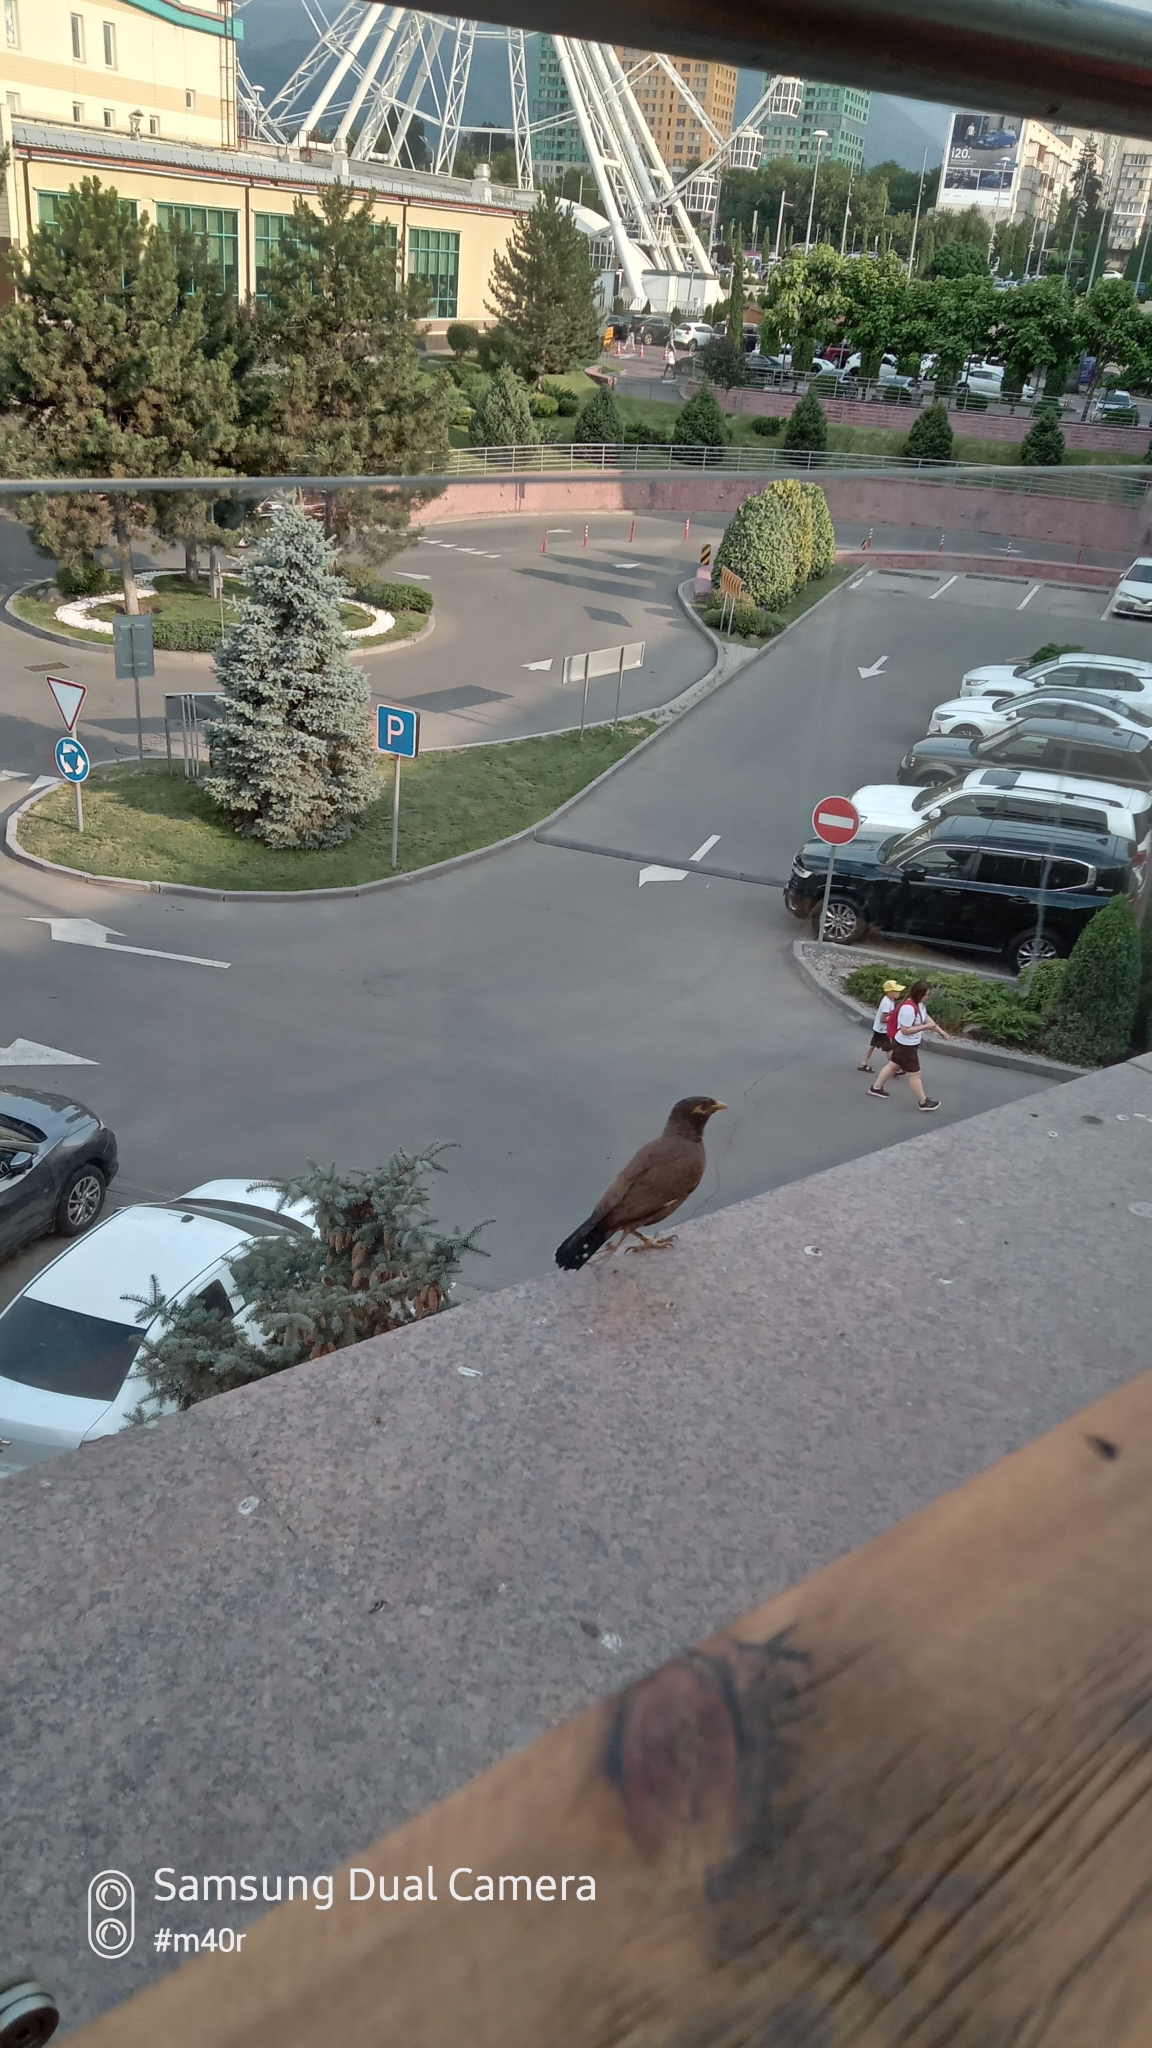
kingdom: Animalia
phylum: Chordata
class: Aves
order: Passeriformes
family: Sturnidae
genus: Acridotheres
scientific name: Acridotheres tristis
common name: Common myna
